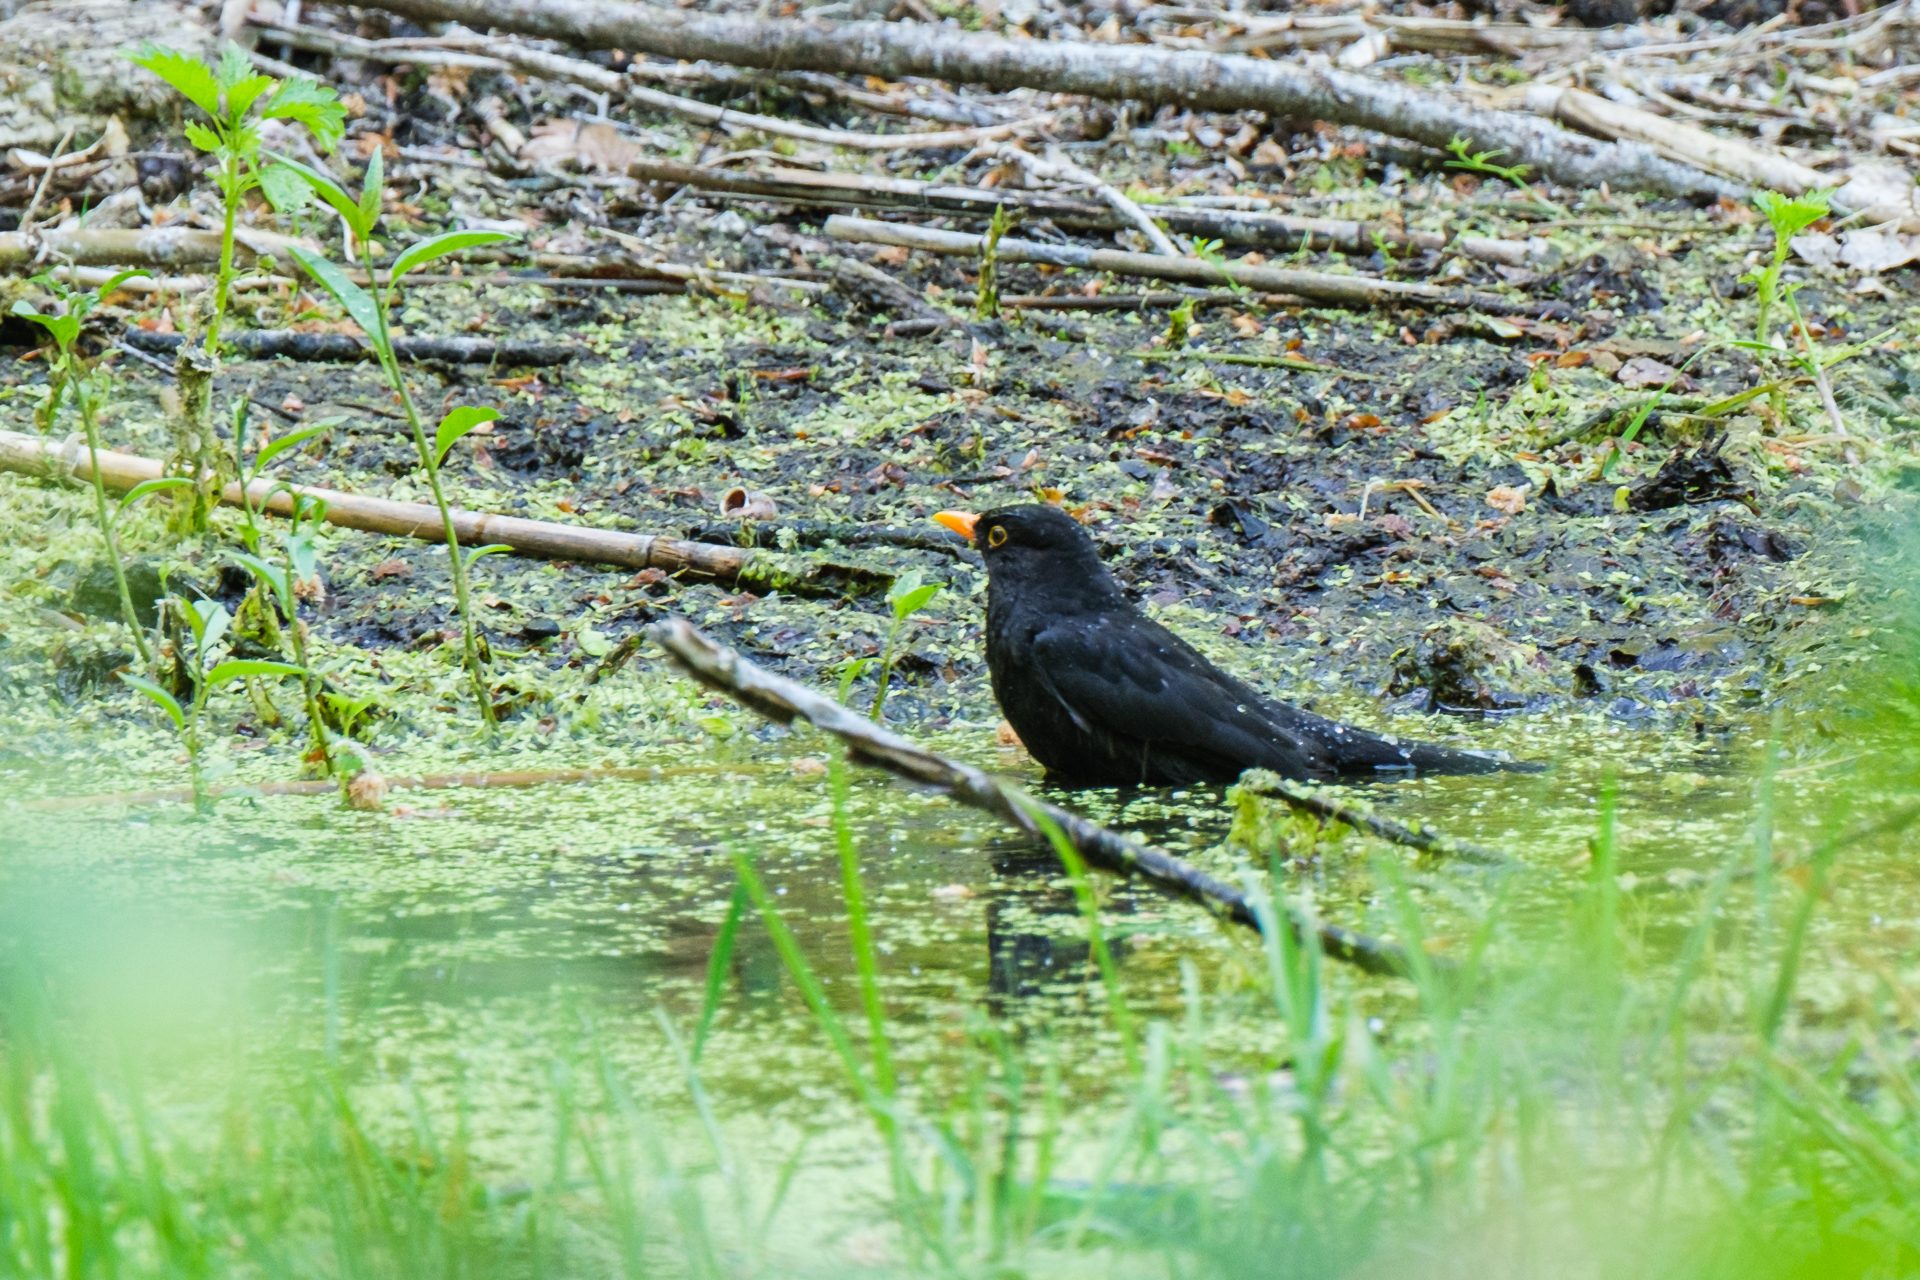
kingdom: Animalia
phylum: Chordata
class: Aves
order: Passeriformes
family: Turdidae
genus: Turdus
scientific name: Turdus merula
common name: Common blackbird
